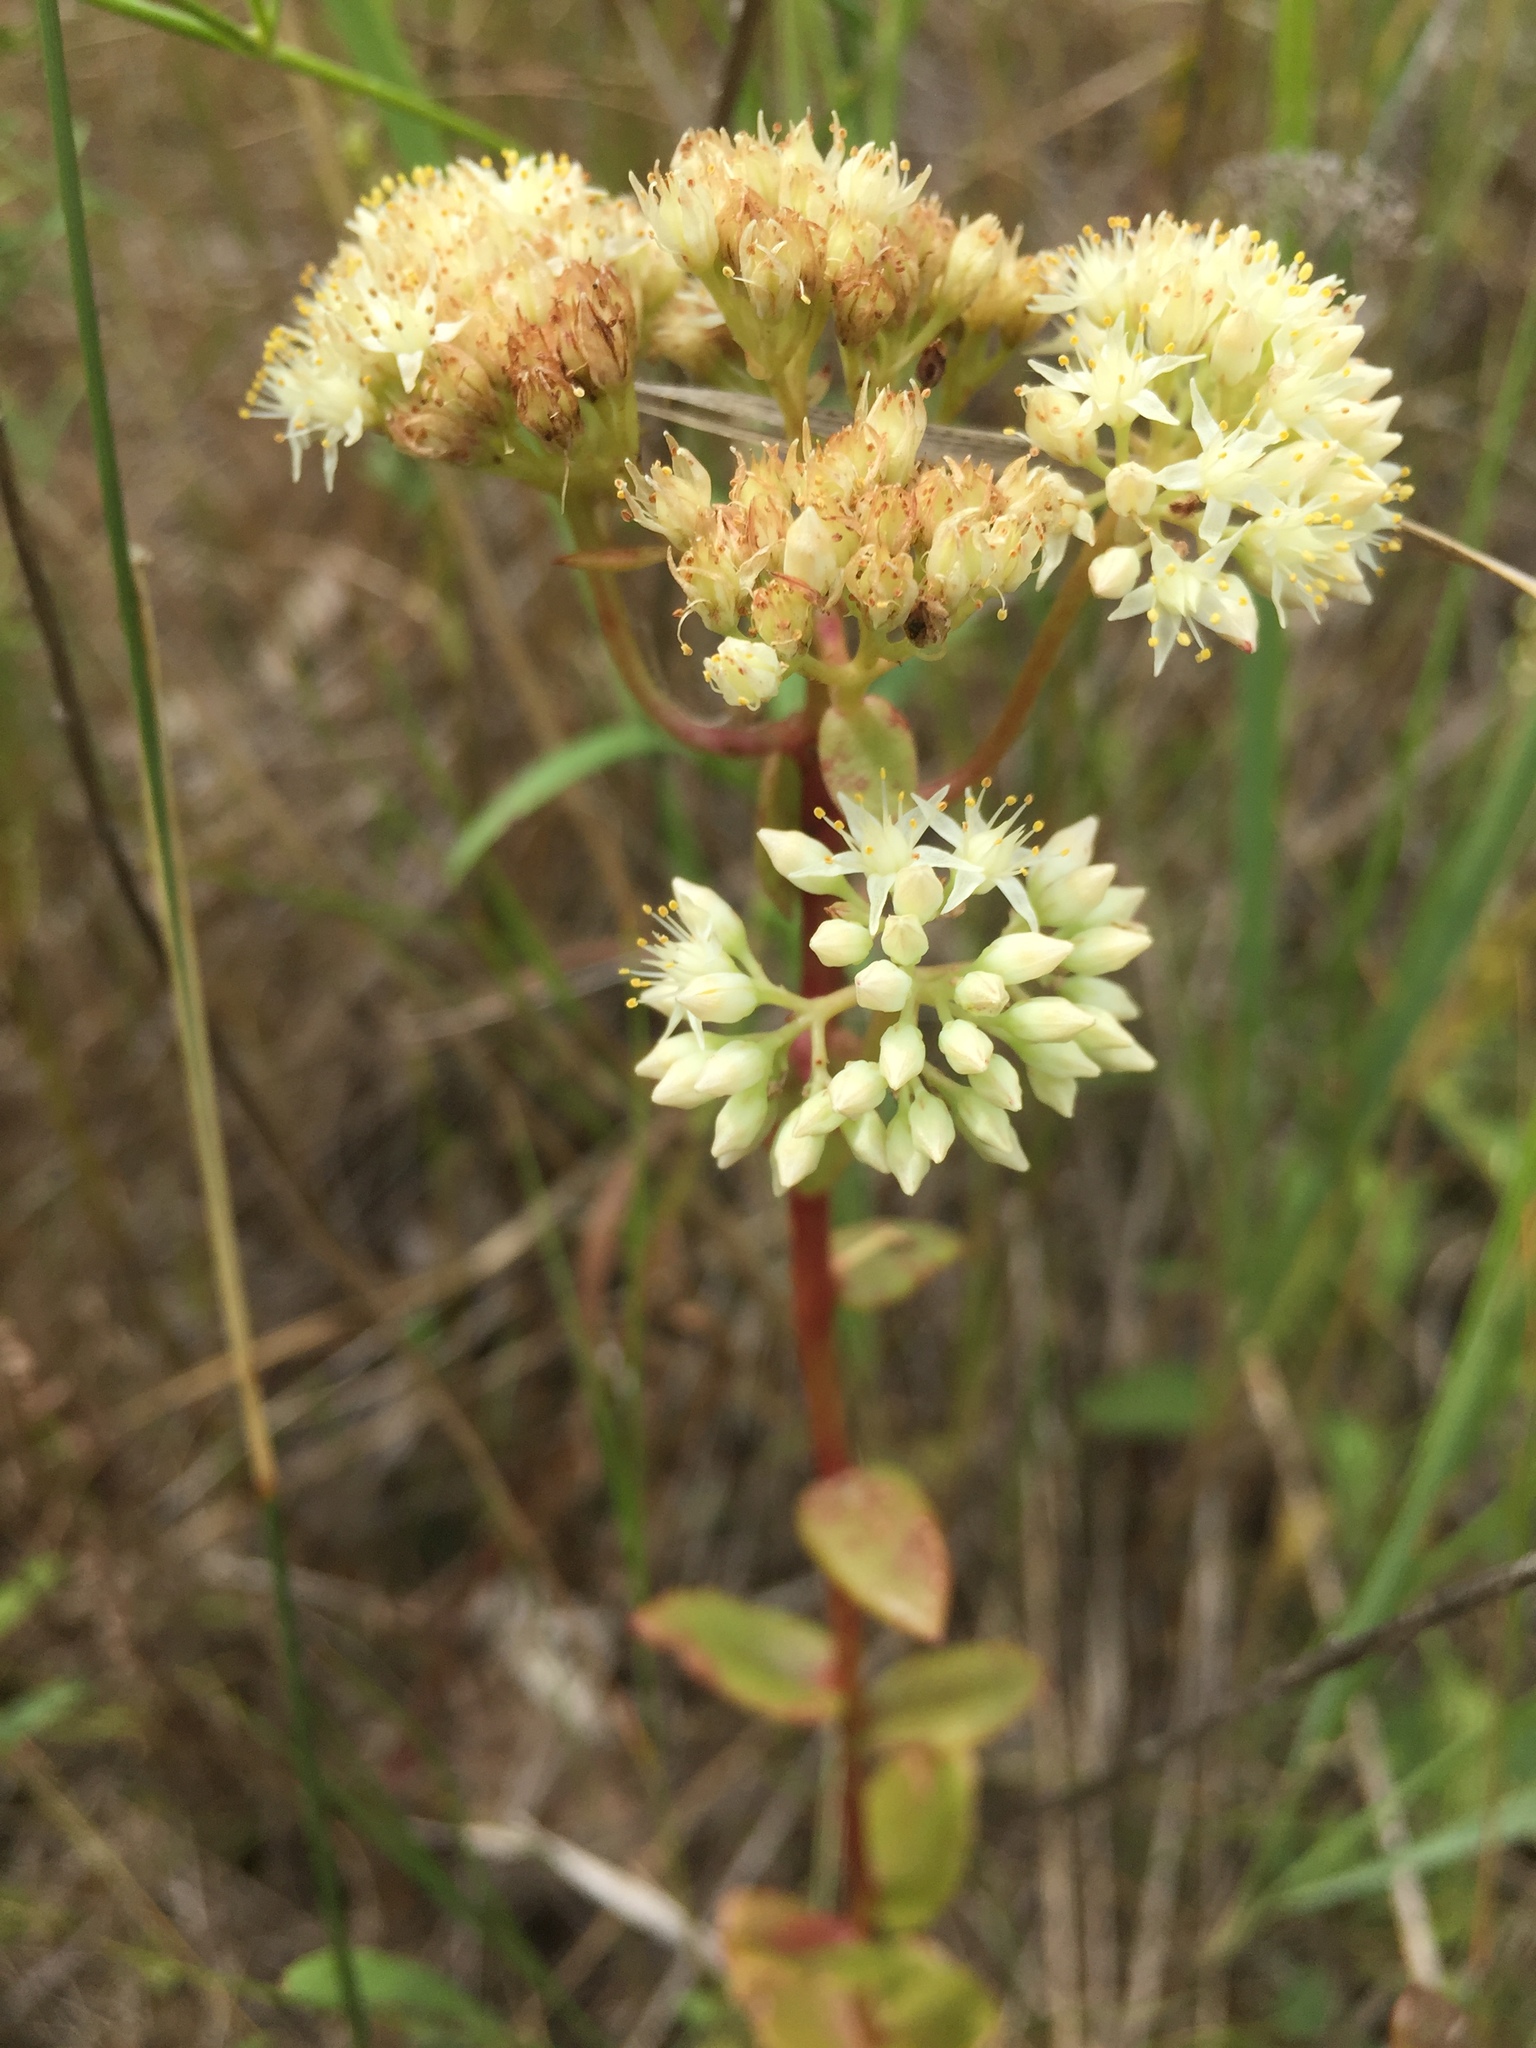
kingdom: Plantae
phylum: Tracheophyta
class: Magnoliopsida
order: Saxifragales
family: Crassulaceae
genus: Hylotelephium
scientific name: Hylotelephium maximum
